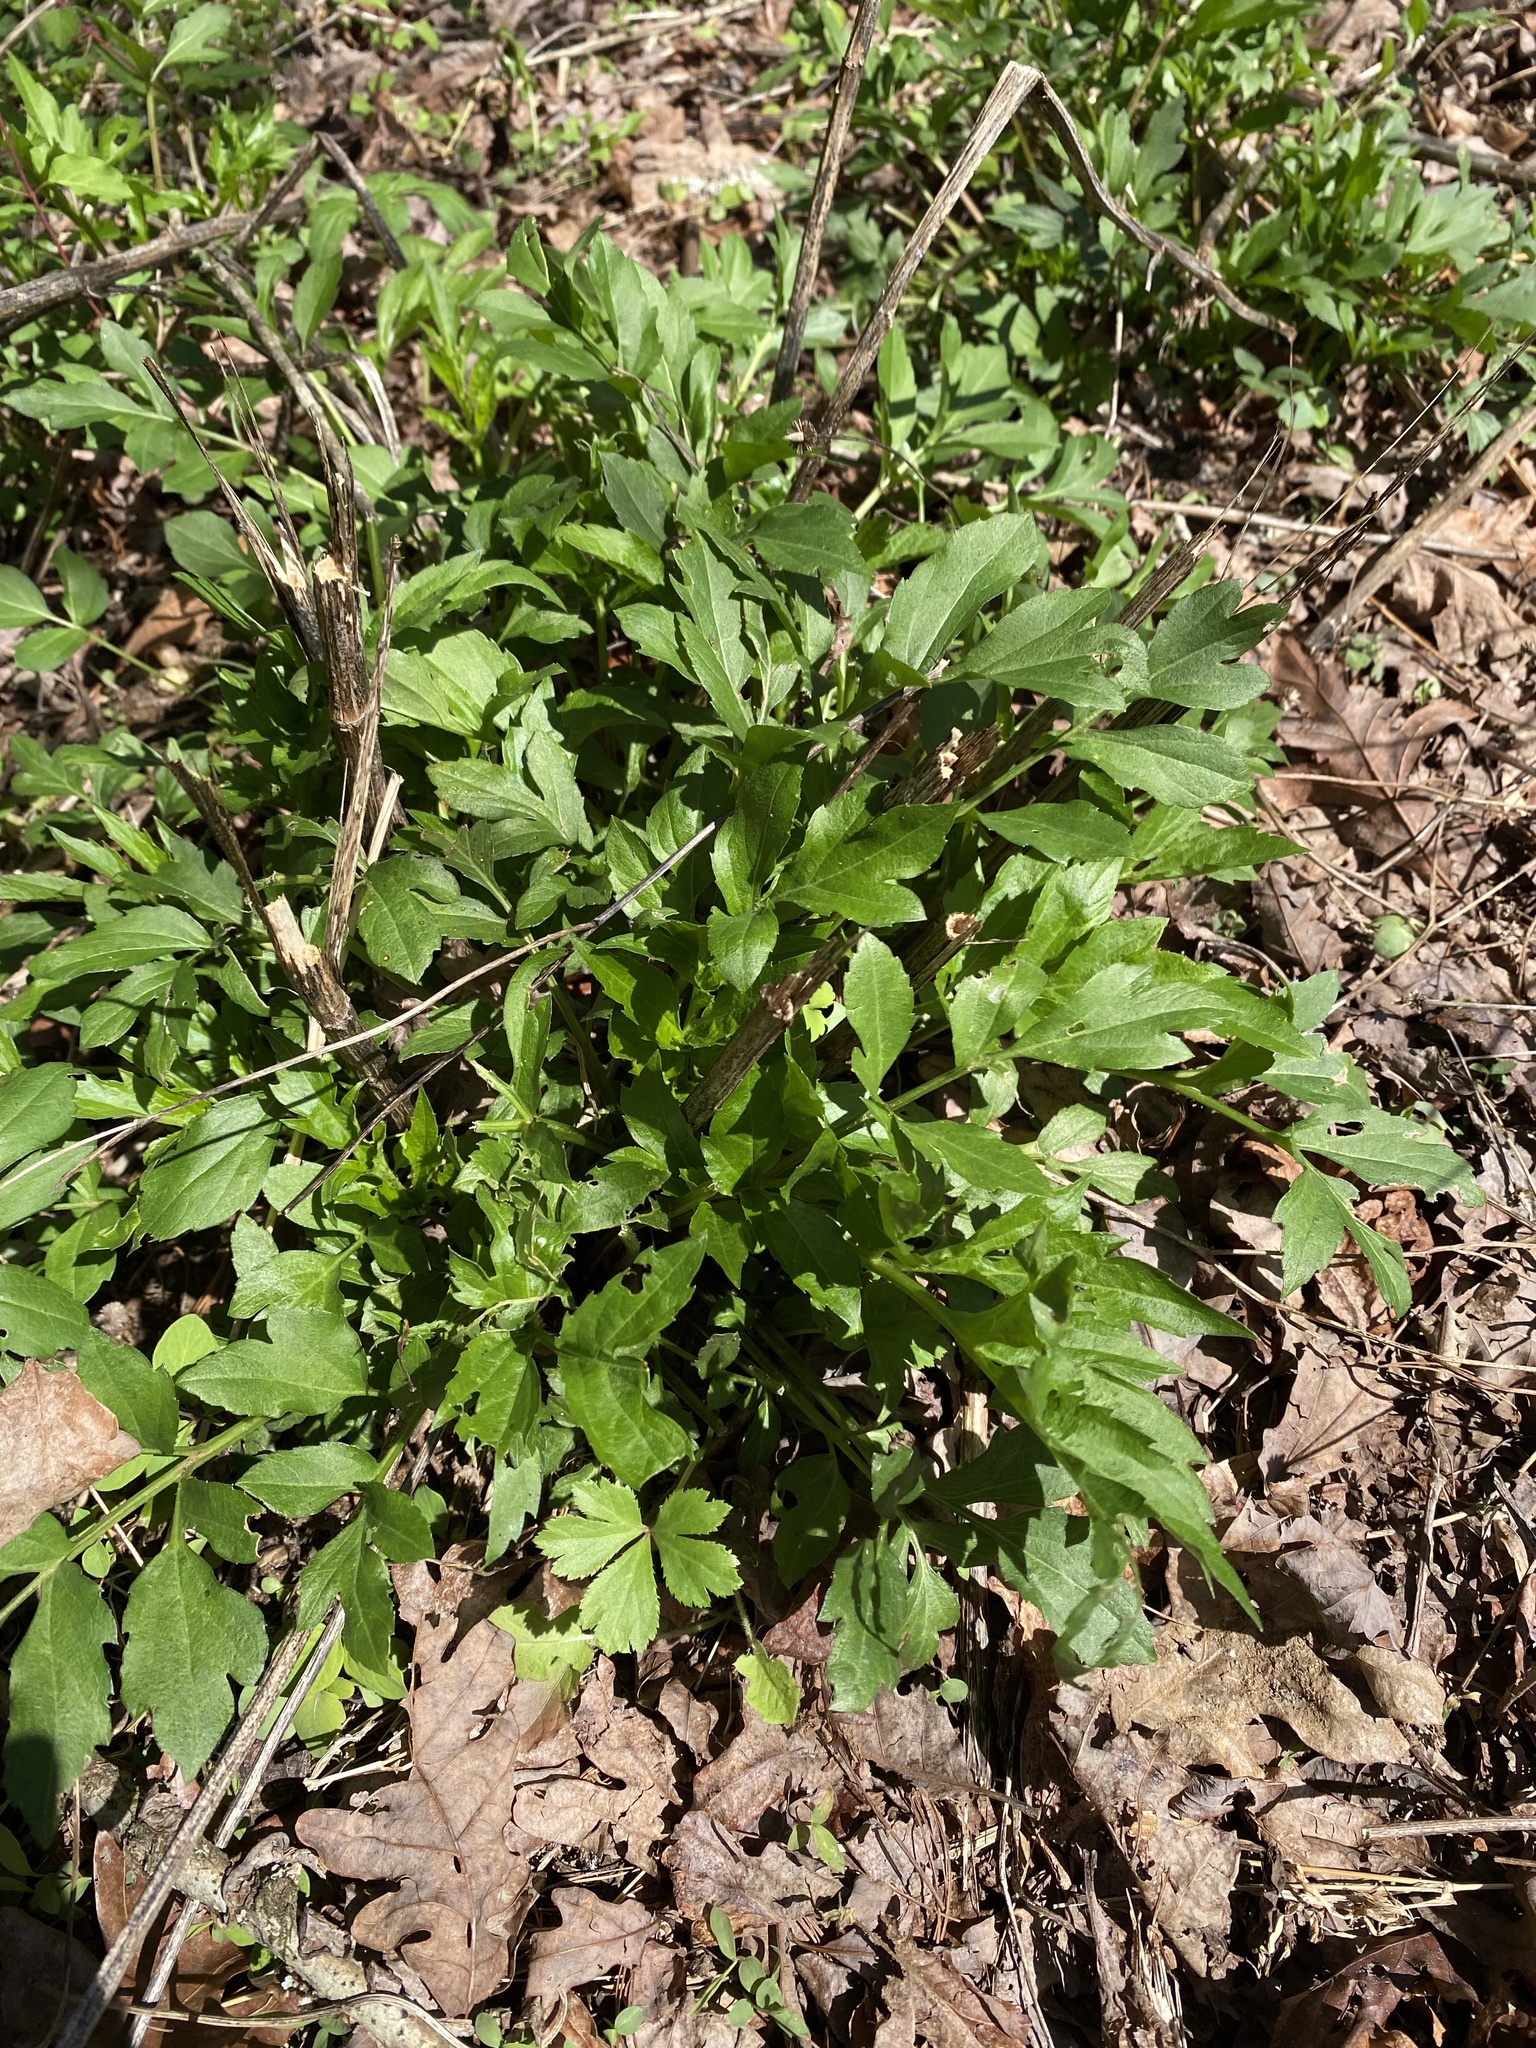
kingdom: Plantae
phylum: Tracheophyta
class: Magnoliopsida
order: Asterales
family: Asteraceae
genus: Rudbeckia
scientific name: Rudbeckia laciniata
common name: Coneflower
